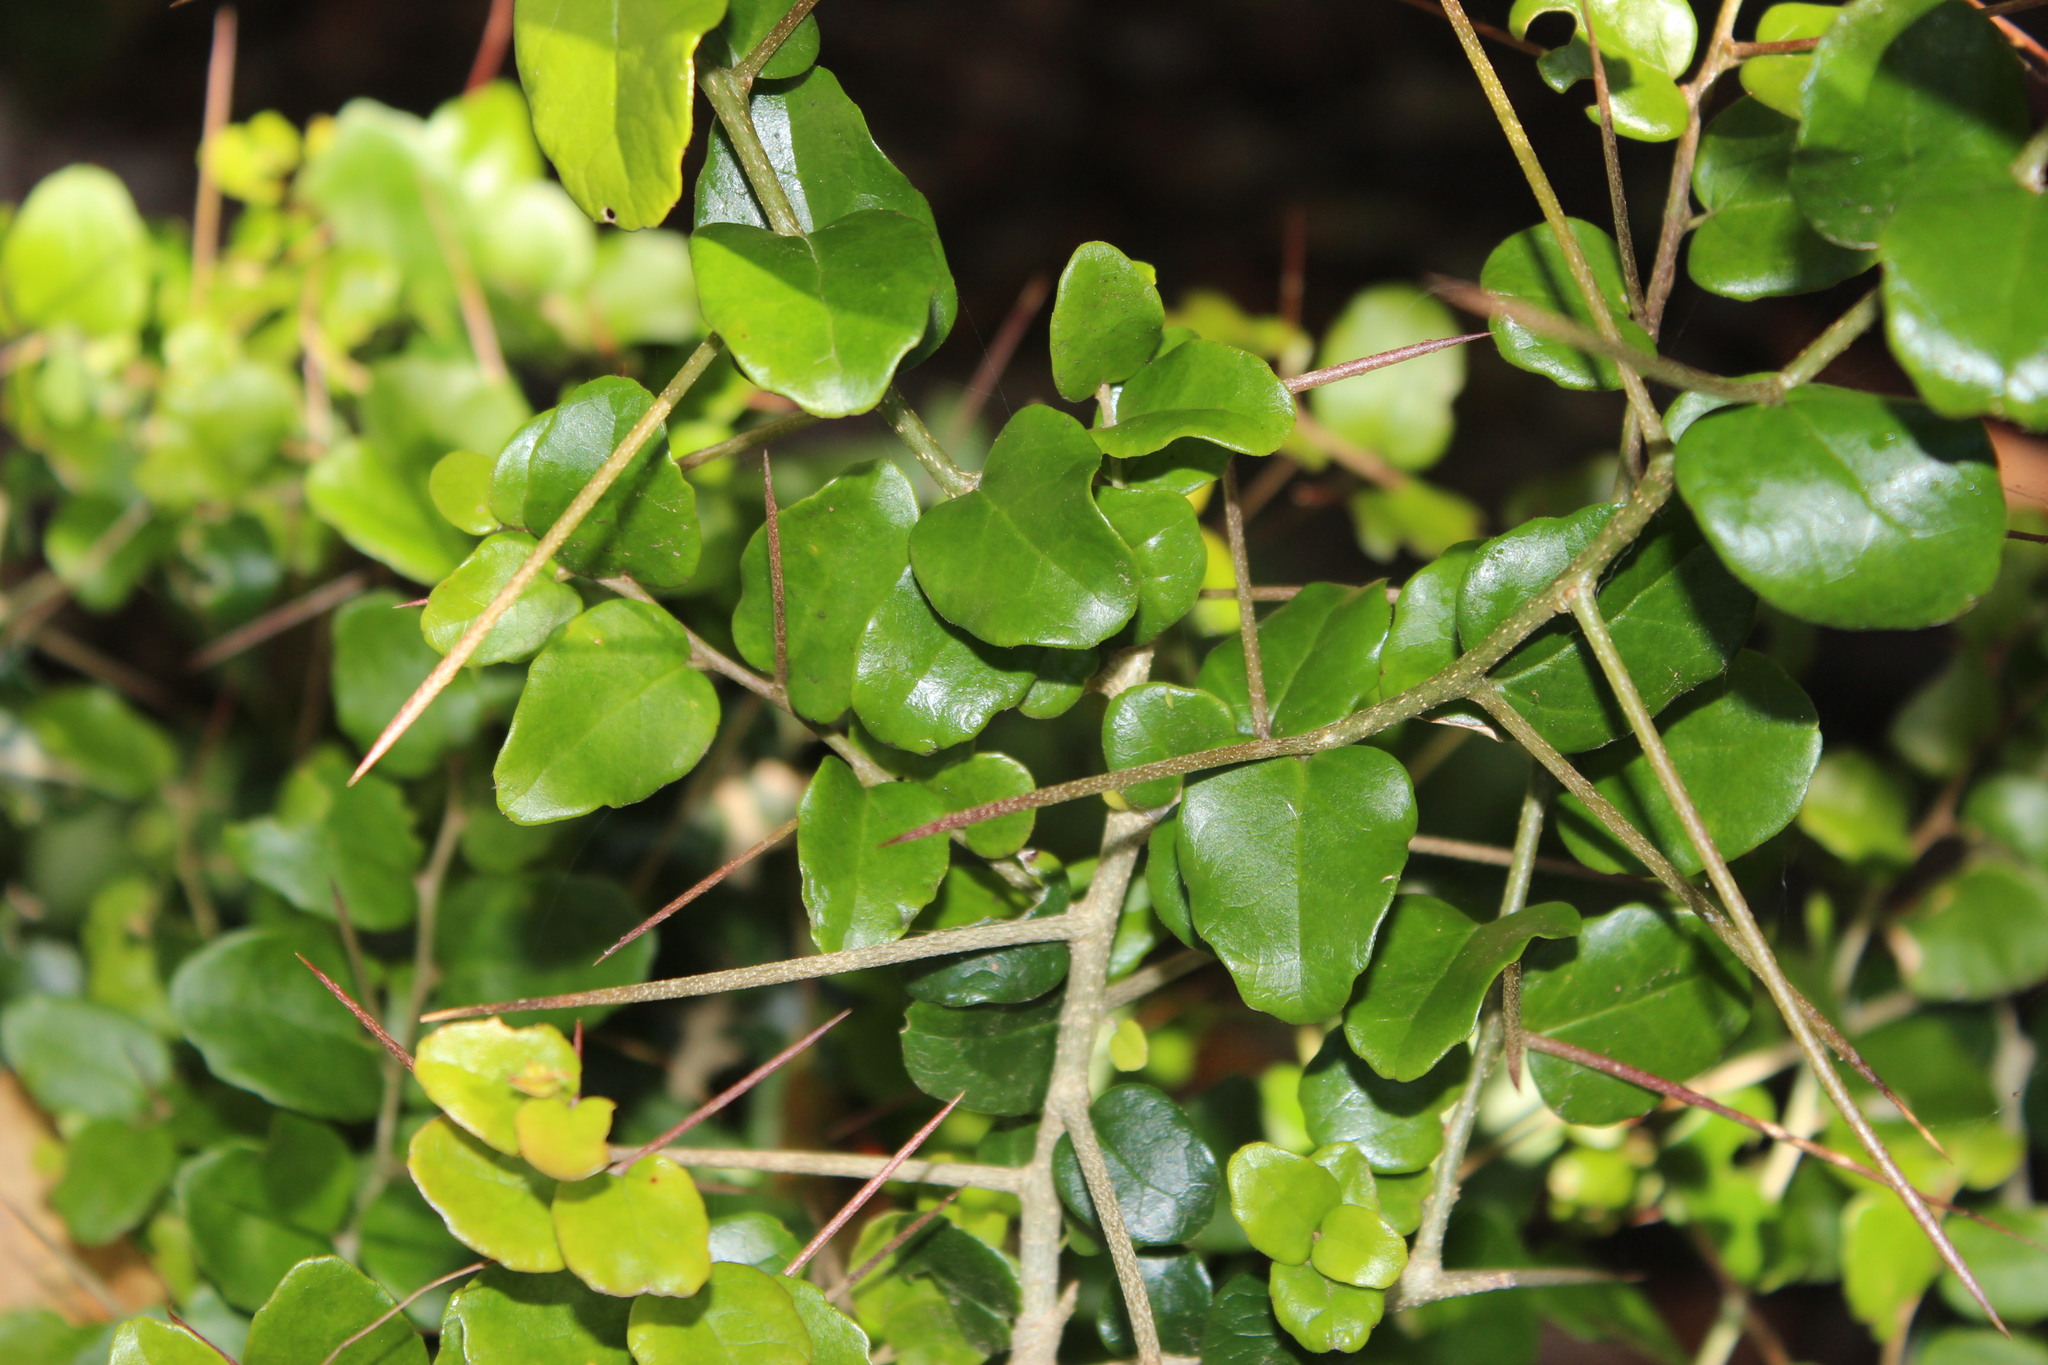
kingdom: Plantae
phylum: Tracheophyta
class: Magnoliopsida
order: Malpighiales
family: Salicaceae
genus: Dovyalis
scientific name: Dovyalis rhamnoides
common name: Sourberry
